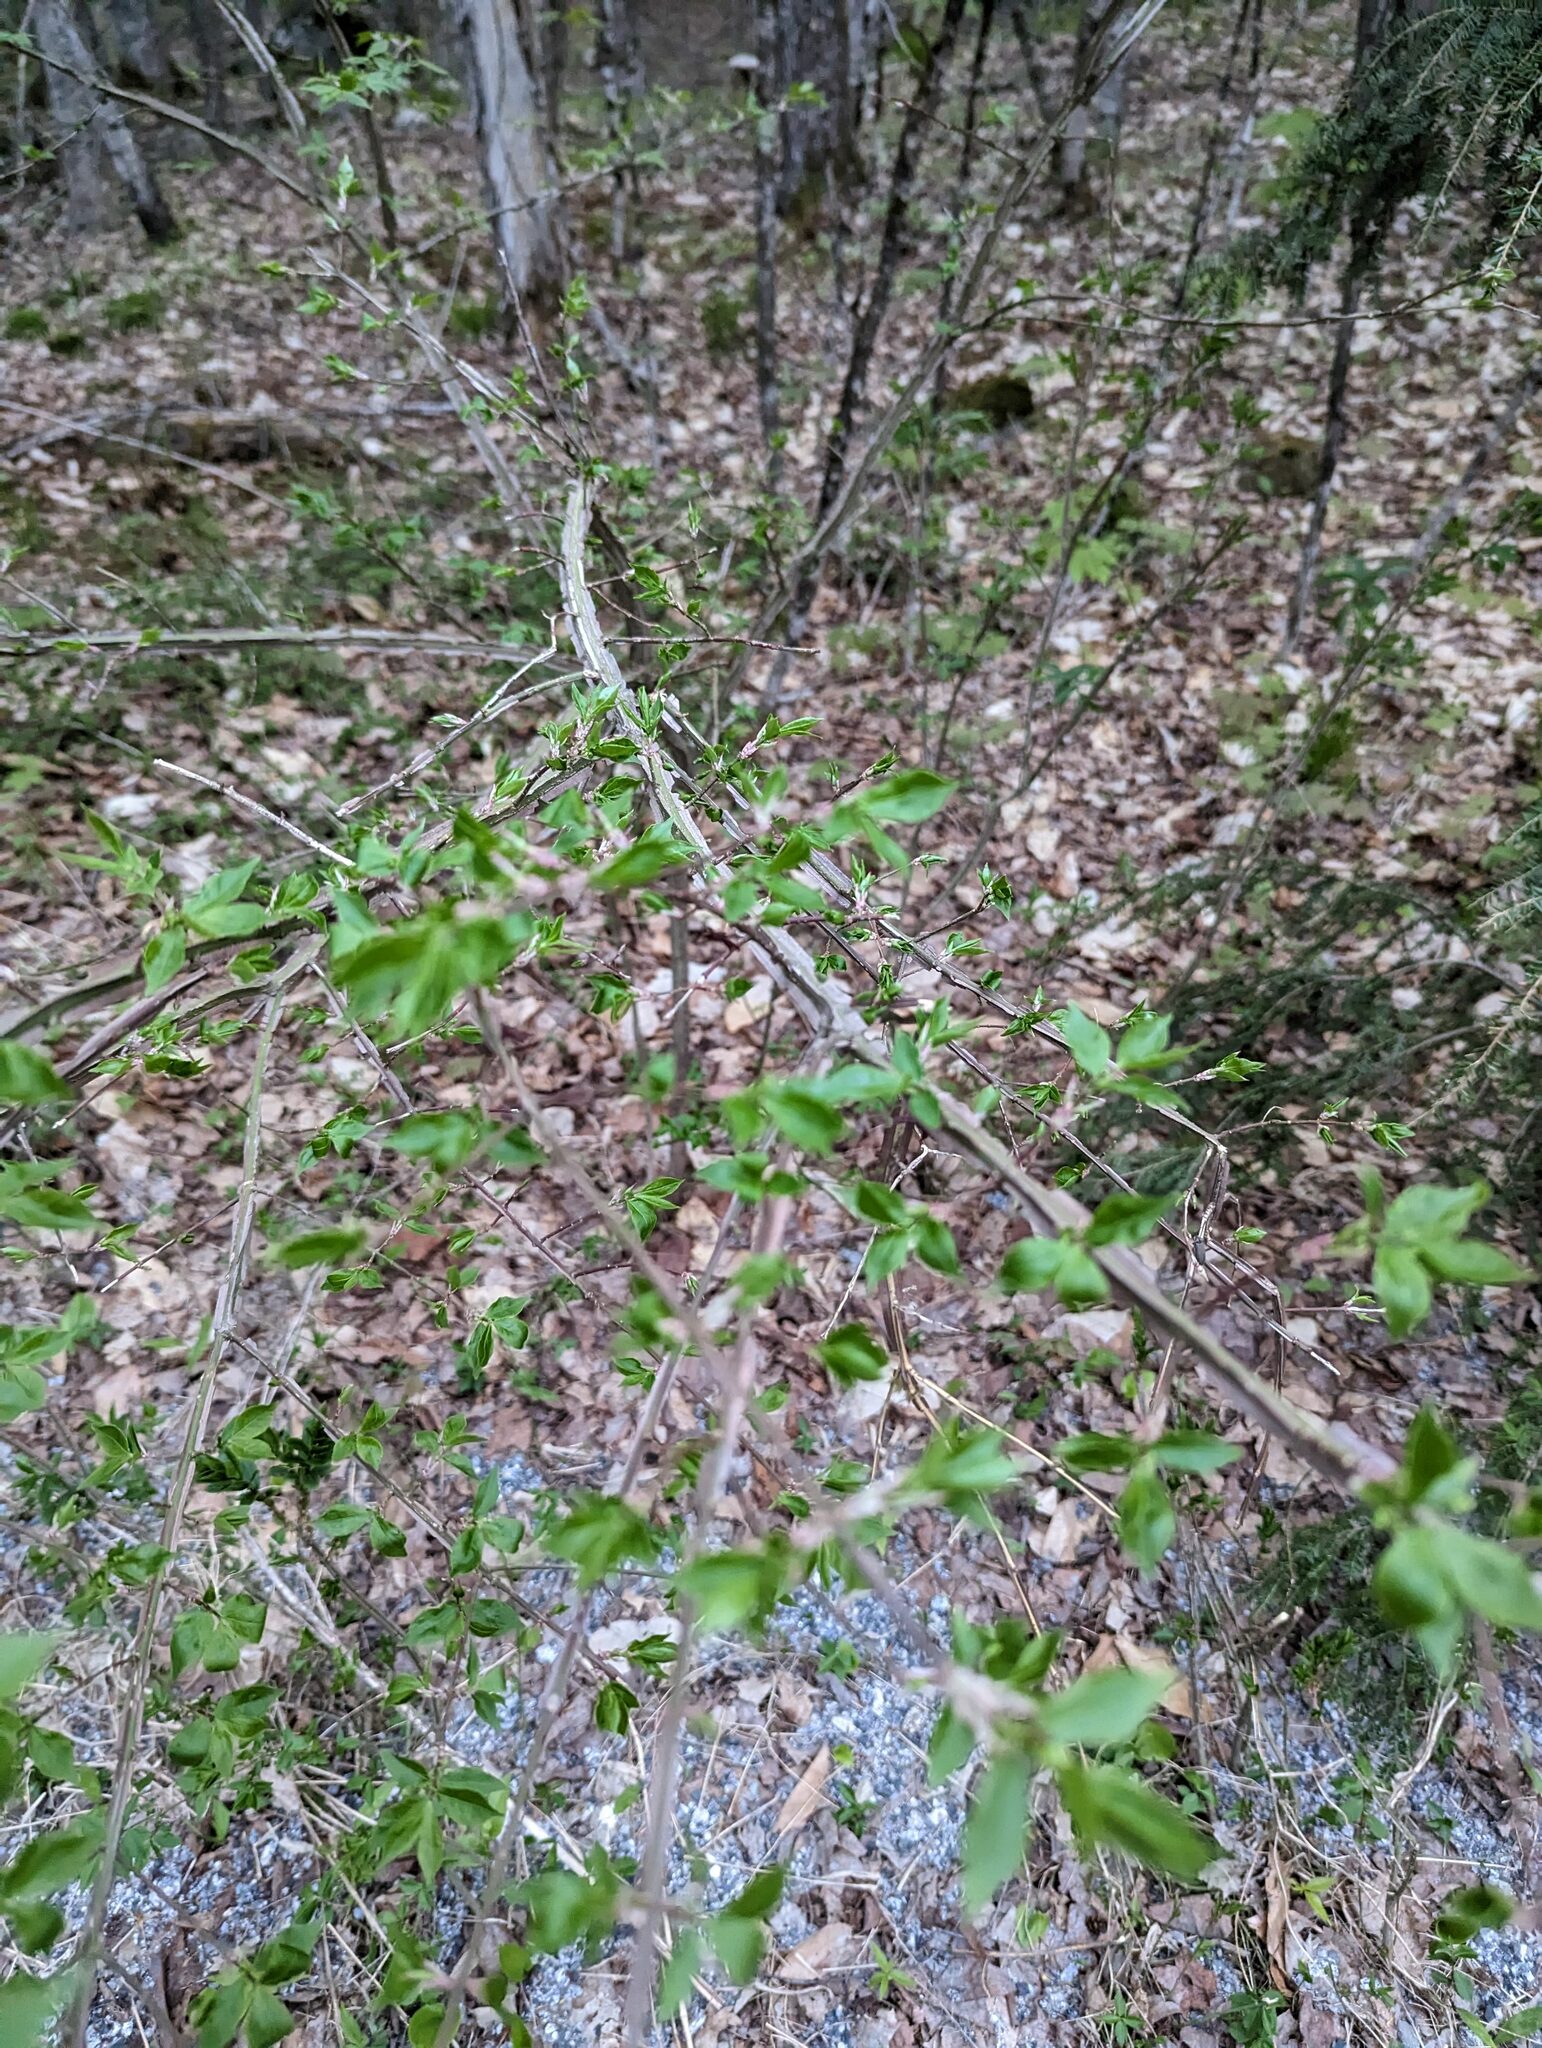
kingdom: Plantae
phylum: Tracheophyta
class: Magnoliopsida
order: Celastrales
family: Celastraceae
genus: Euonymus
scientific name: Euonymus alatus
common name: Winged euonymus
